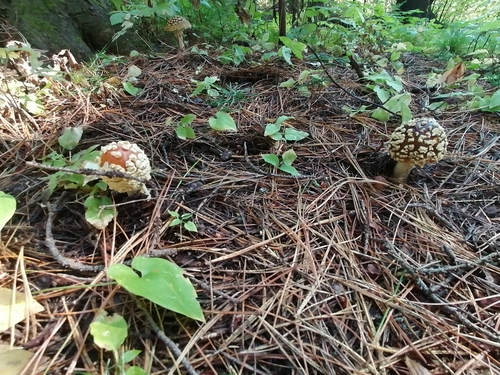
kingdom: Fungi
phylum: Basidiomycota
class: Agaricomycetes
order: Agaricales
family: Amanitaceae
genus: Amanita
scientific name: Amanita regalis
